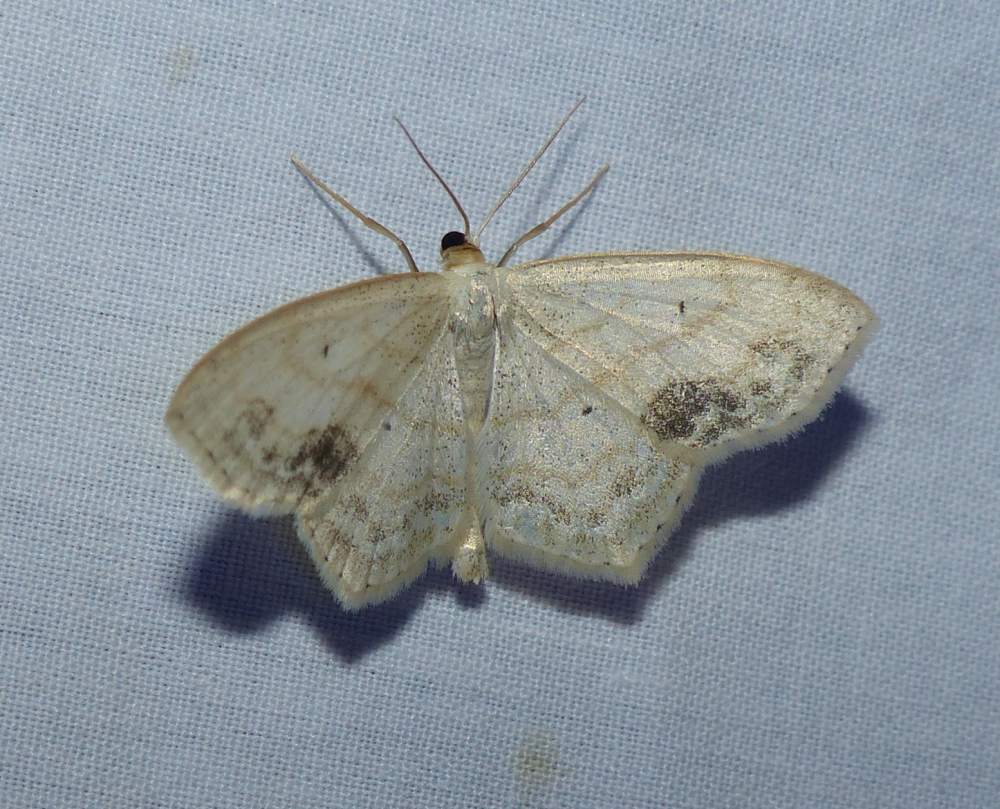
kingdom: Animalia
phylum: Arthropoda
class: Insecta
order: Lepidoptera
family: Geometridae
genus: Scopula
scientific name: Scopula limboundata
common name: Large lace border
